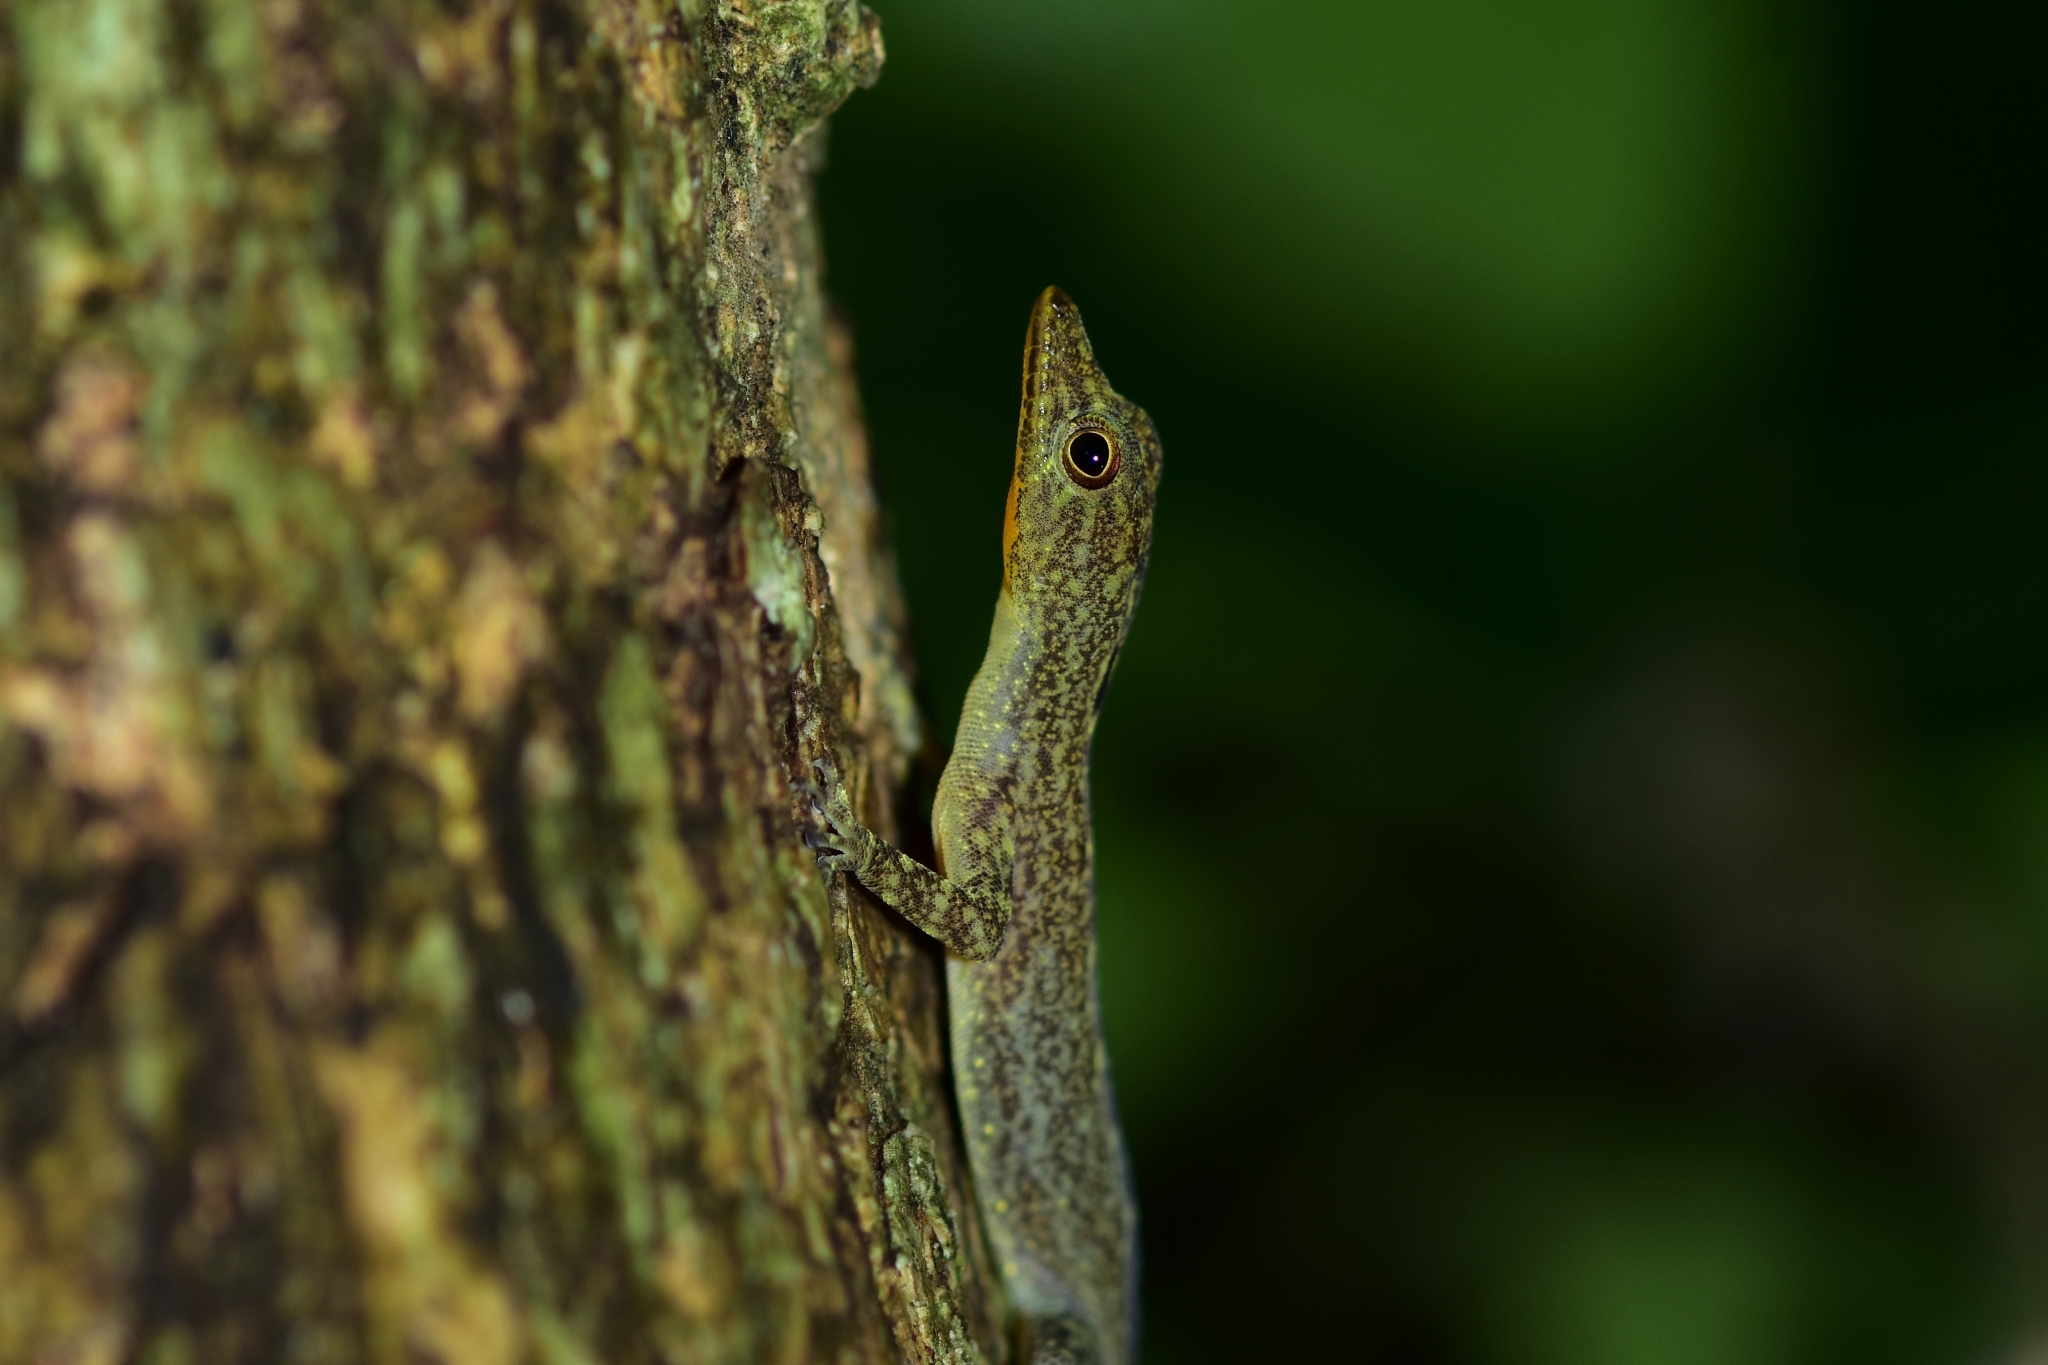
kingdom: Animalia
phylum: Chordata
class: Squamata
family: Gekkonidae
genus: Cnemaspis
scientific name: Cnemaspis littoralis
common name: Coastal day gecko
